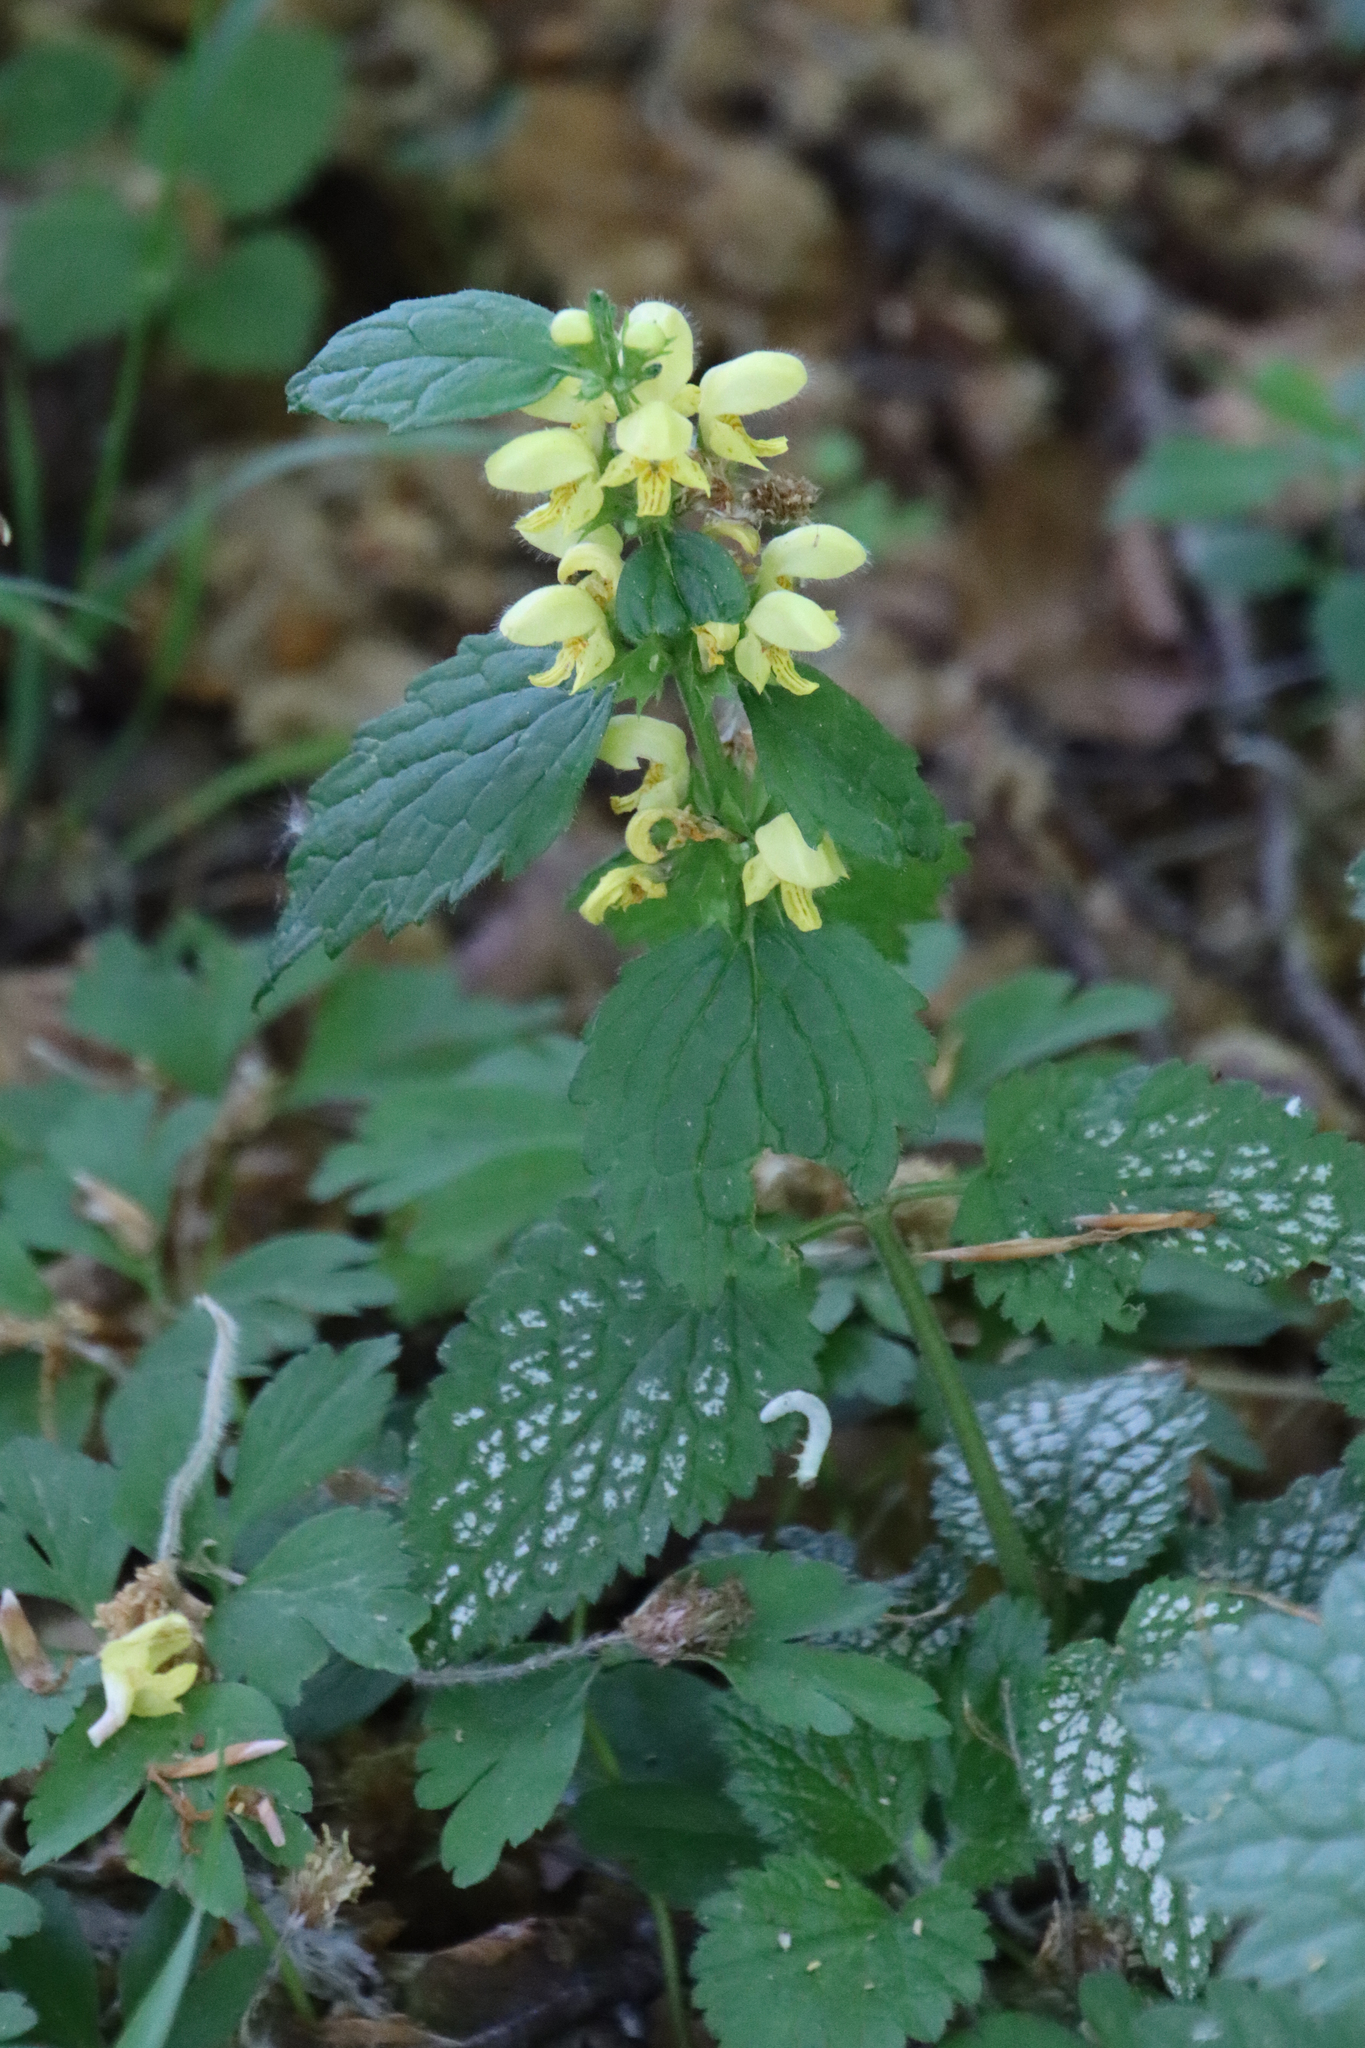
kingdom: Plantae
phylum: Tracheophyta
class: Magnoliopsida
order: Lamiales
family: Lamiaceae
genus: Lamium
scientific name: Lamium galeobdolon
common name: Yellow archangel
